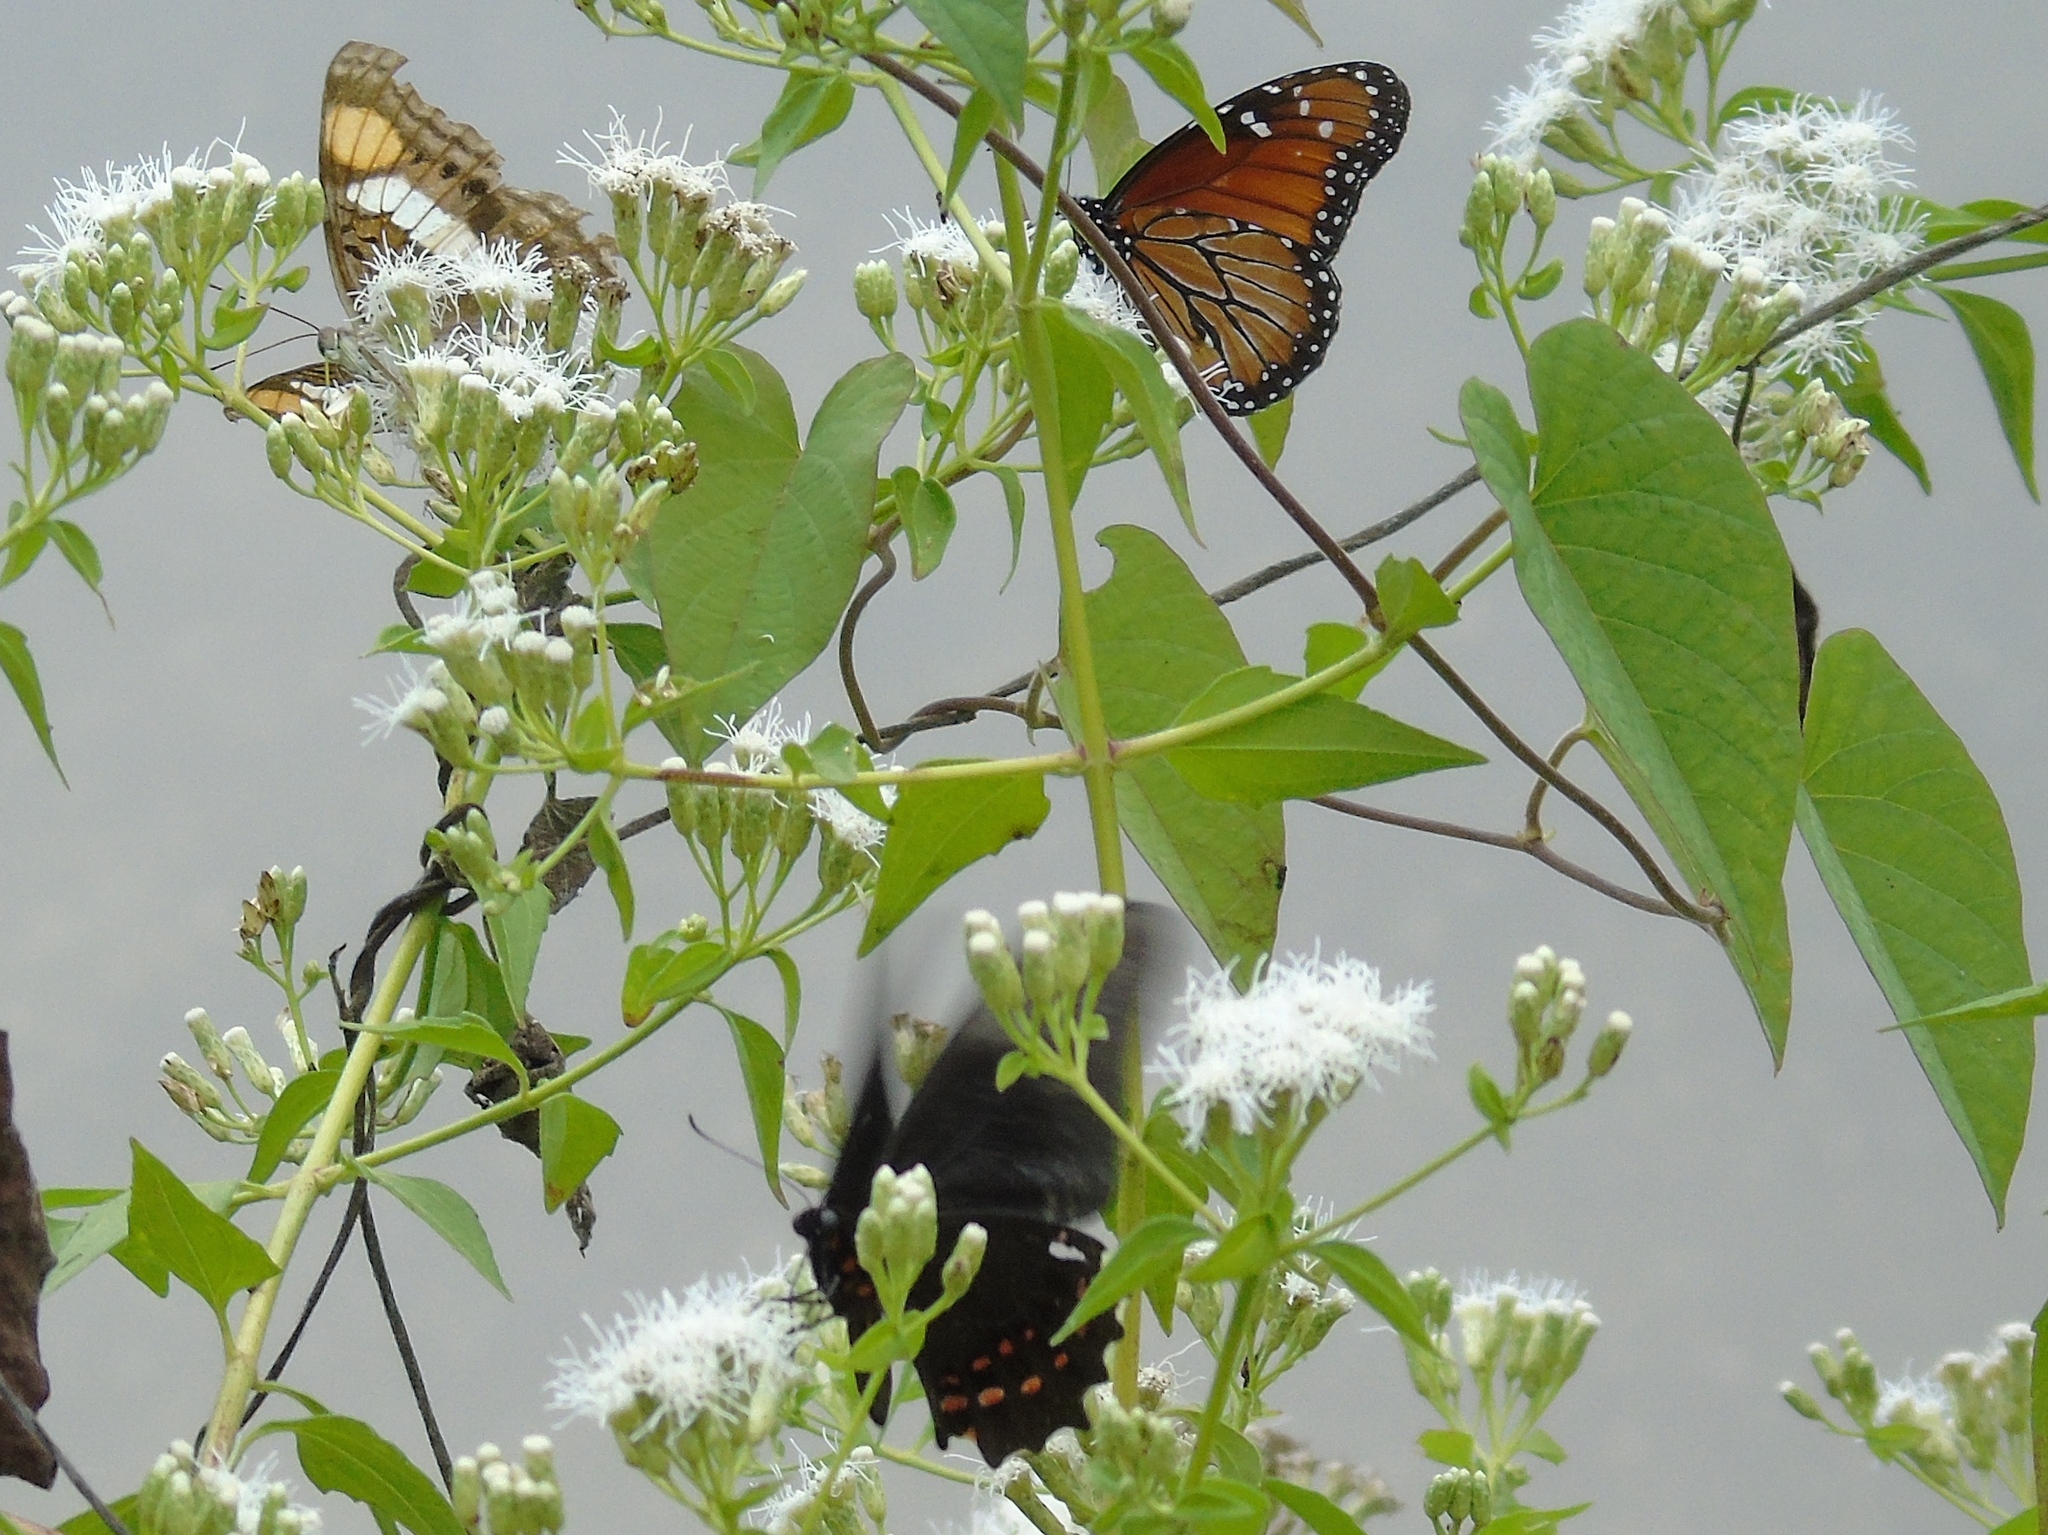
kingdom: Plantae
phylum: Tracheophyta
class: Magnoliopsida
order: Asterales
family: Asteraceae
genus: Chromolaena
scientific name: Chromolaena odorata
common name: Siamweed
